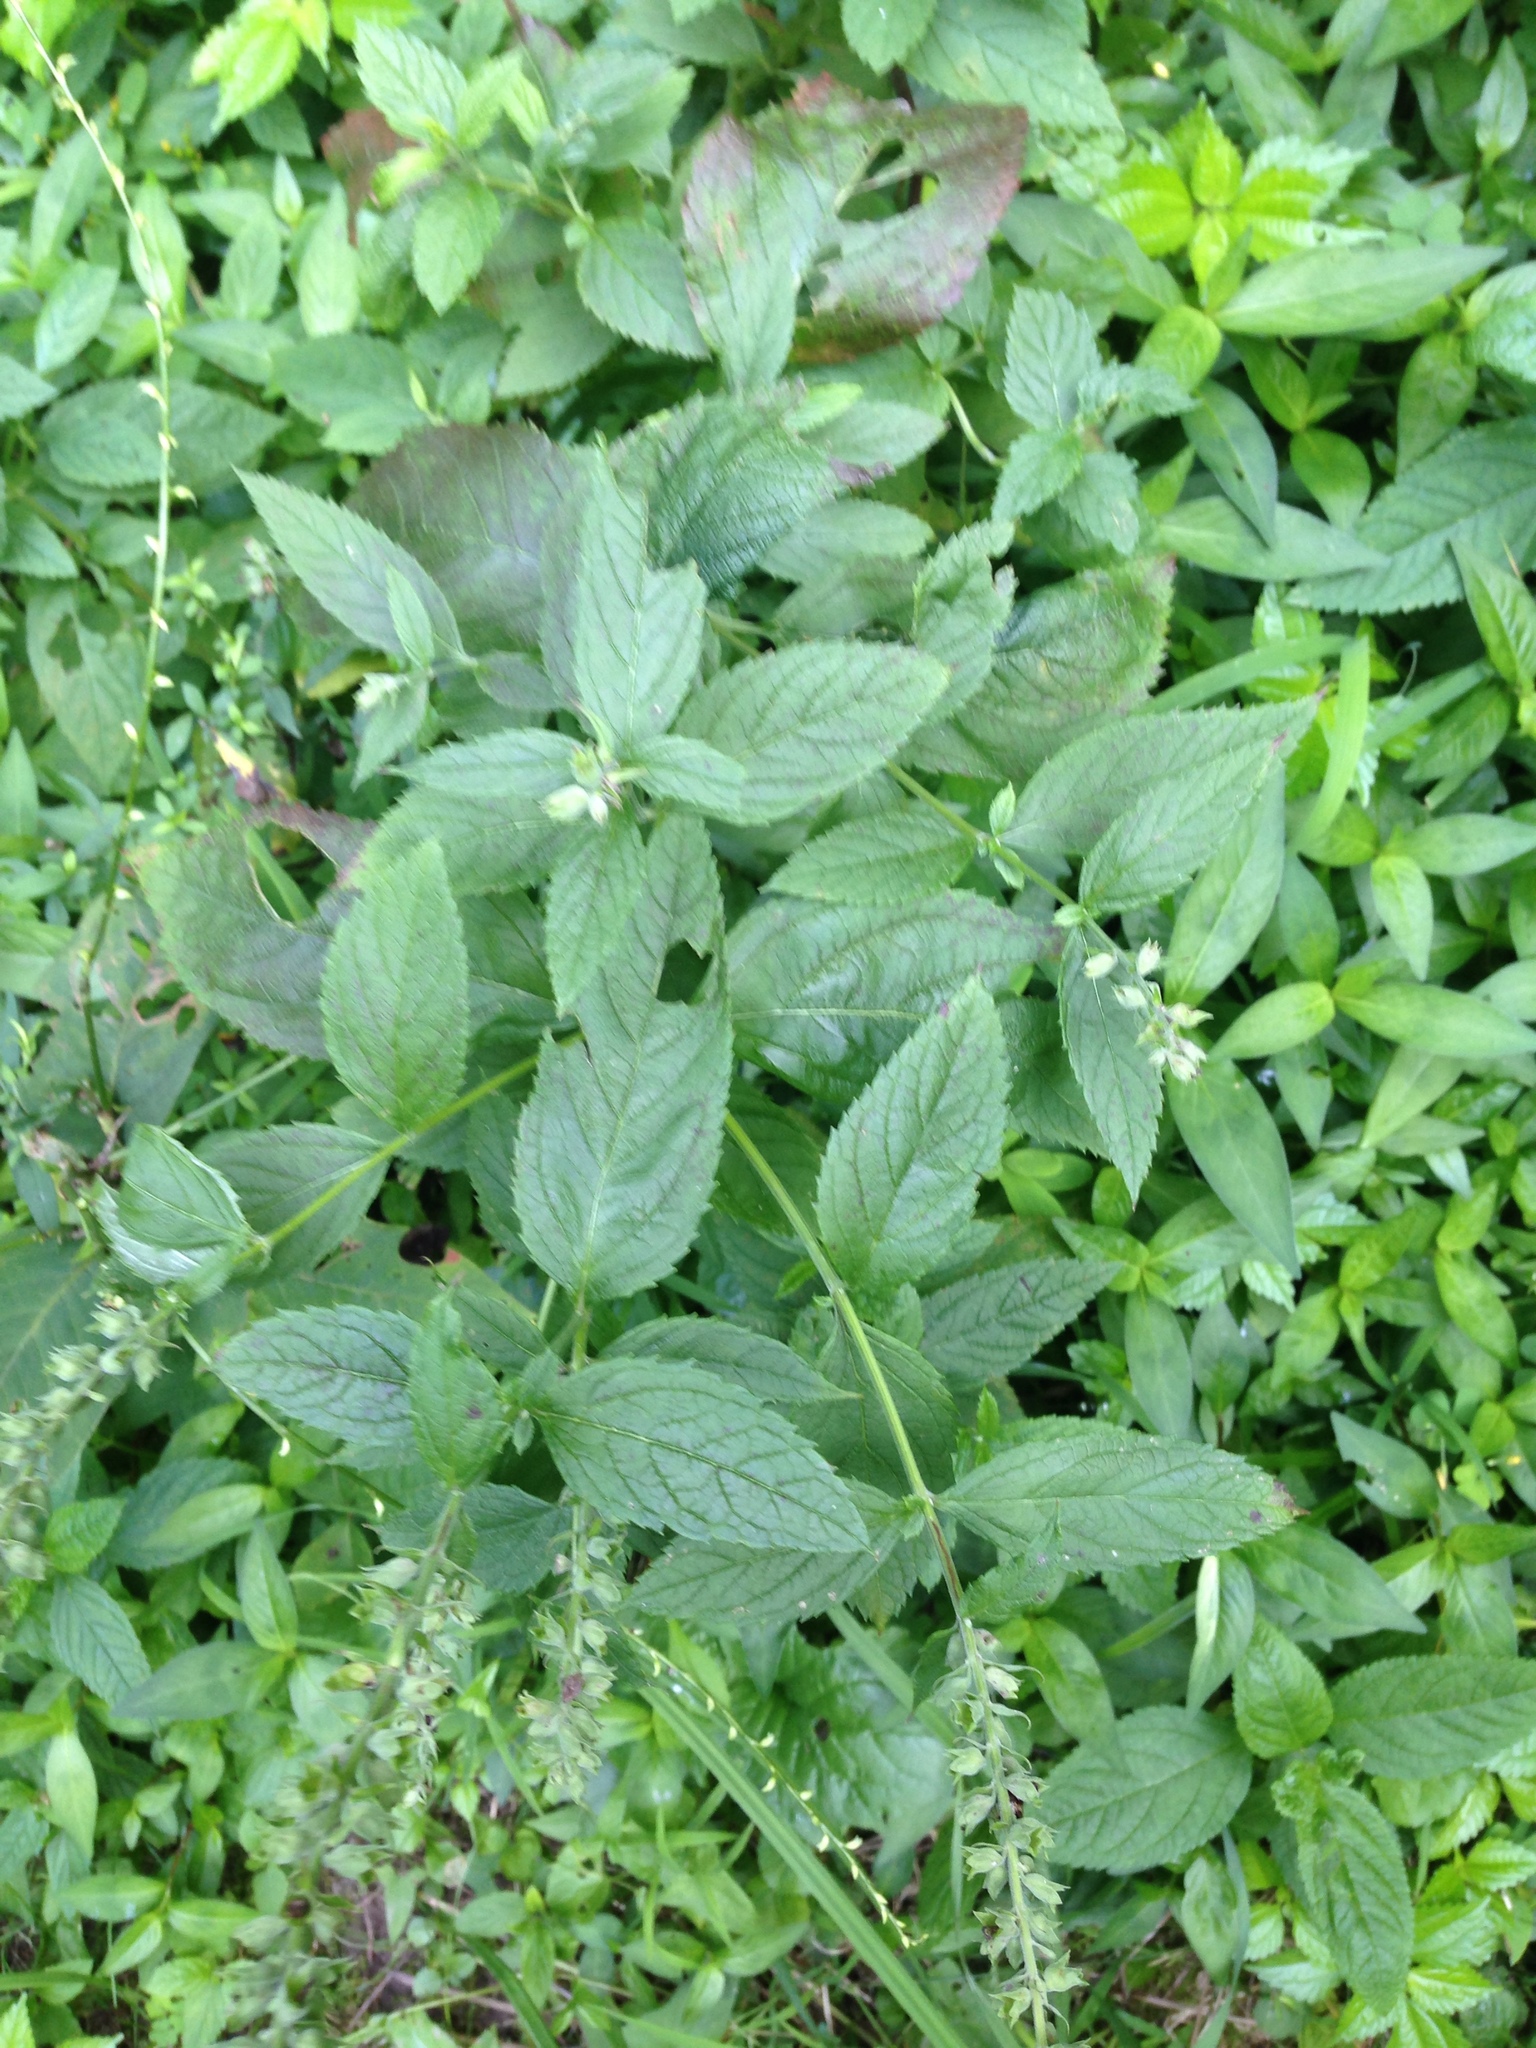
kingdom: Plantae
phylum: Tracheophyta
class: Magnoliopsida
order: Lamiales
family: Lamiaceae
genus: Teucrium
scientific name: Teucrium canadense
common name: American germander
